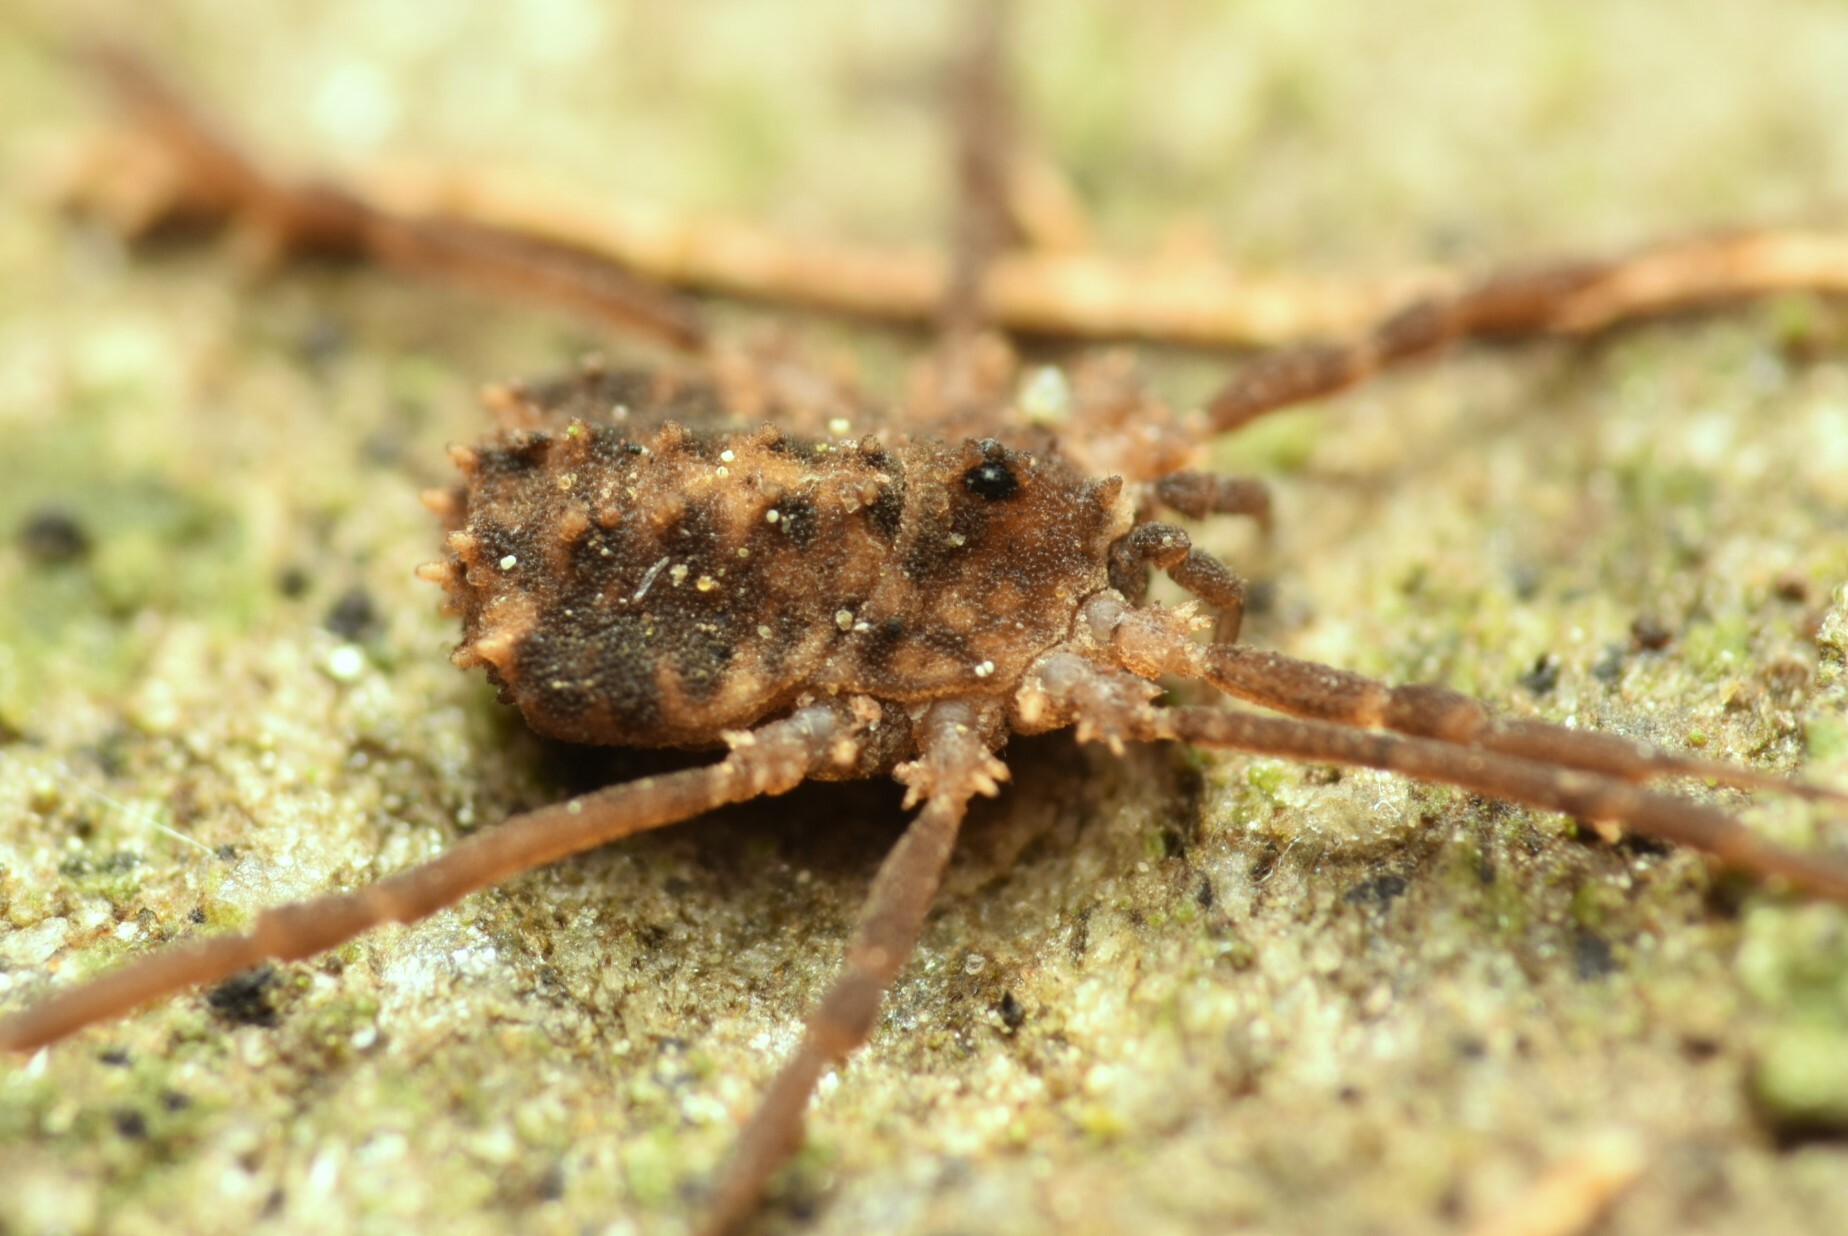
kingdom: Animalia
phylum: Arthropoda
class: Arachnida
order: Opiliones
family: Sclerosomatidae
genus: Homalenotus
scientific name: Homalenotus remyi
